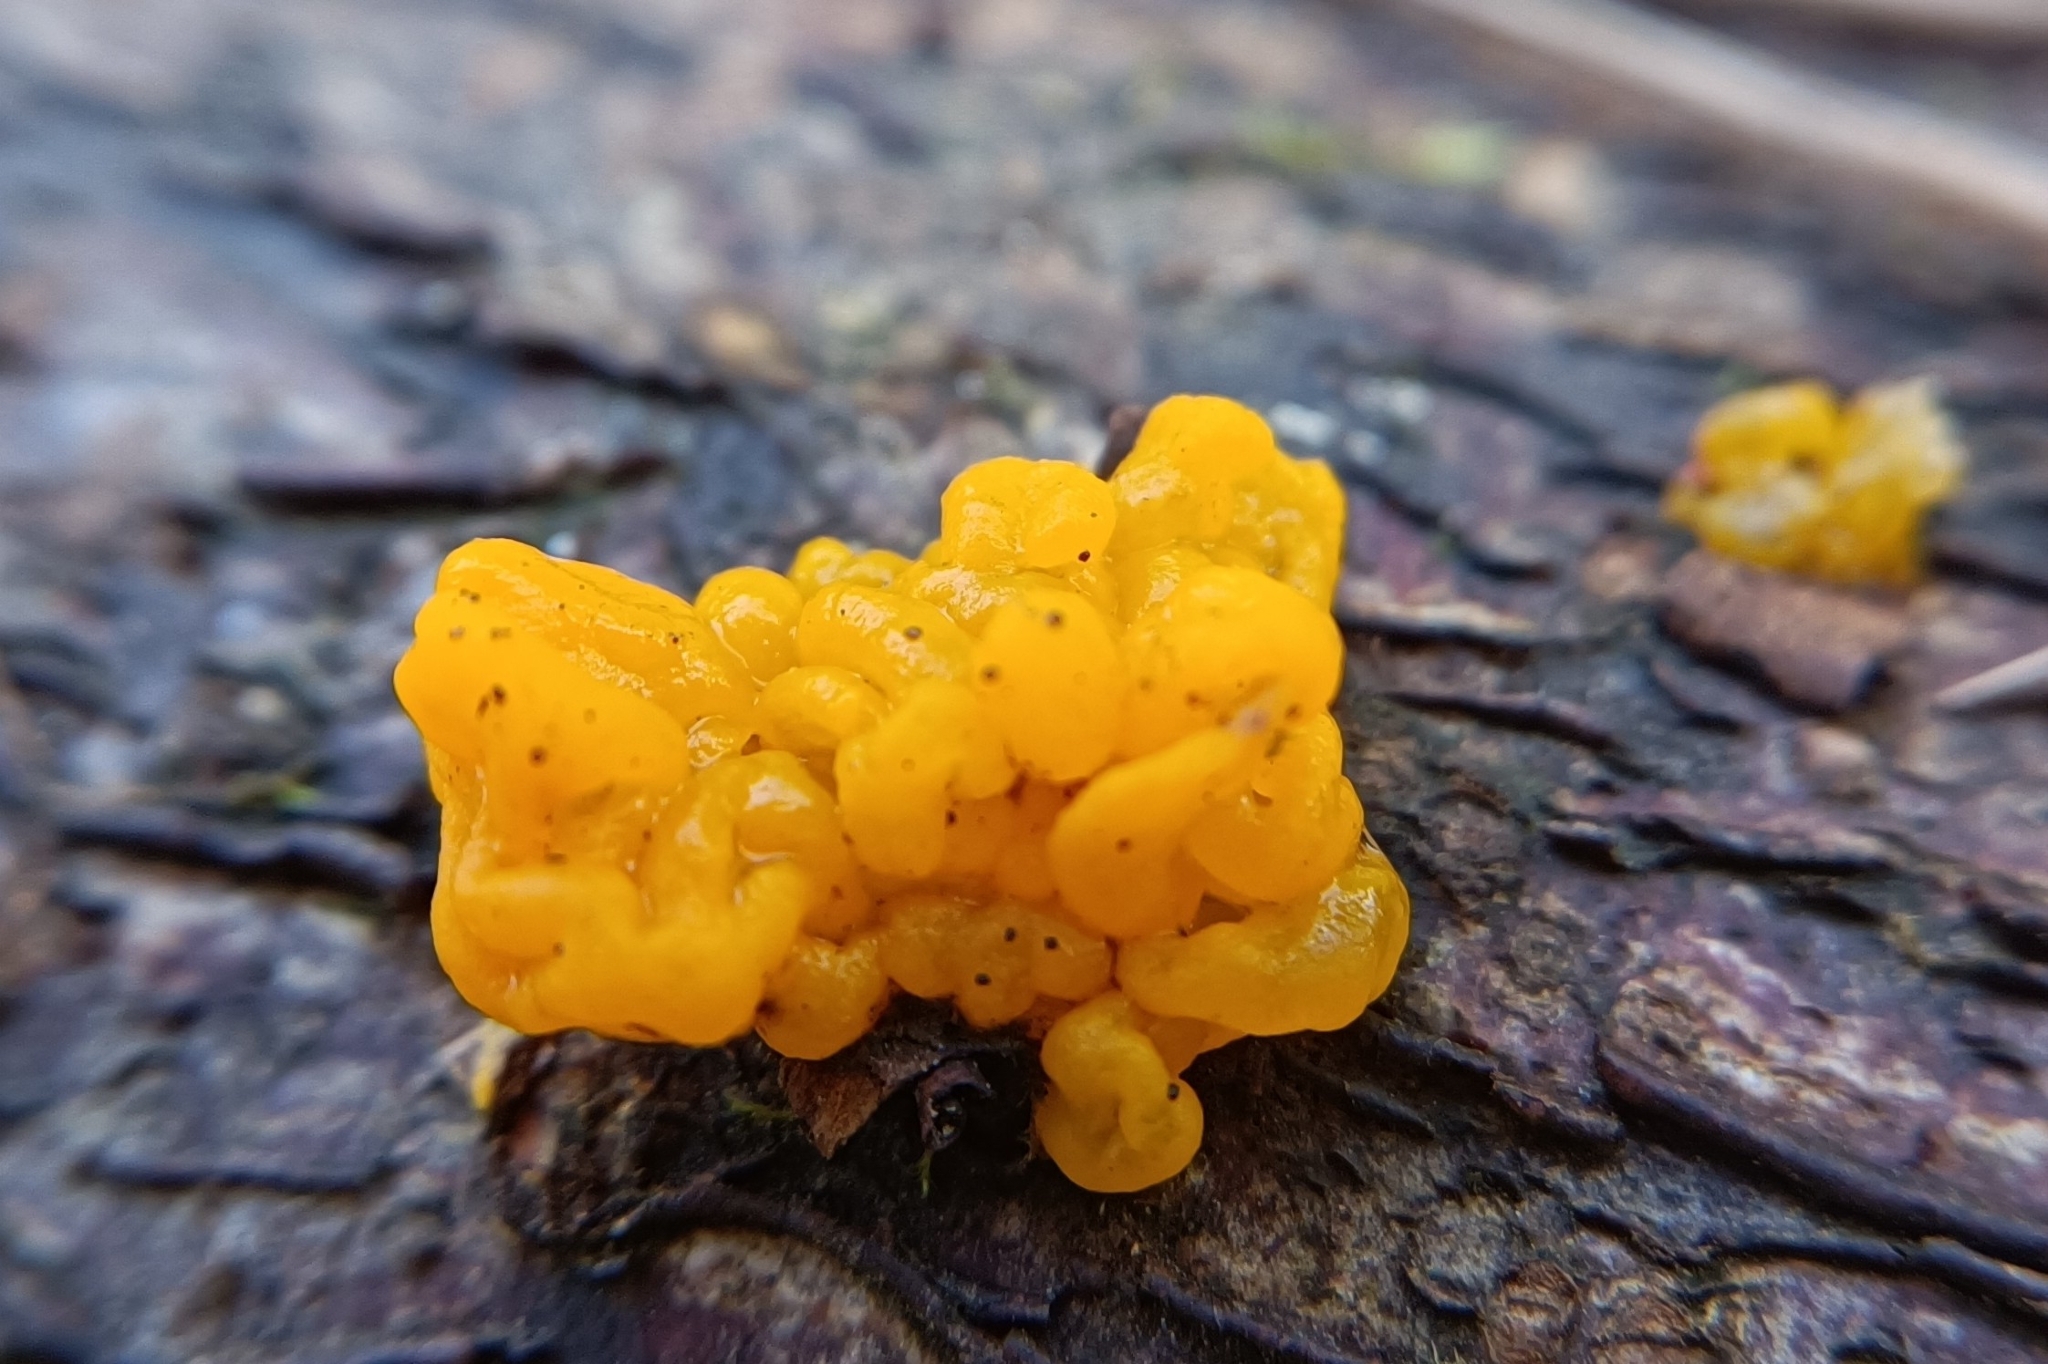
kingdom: Fungi
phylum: Basidiomycota
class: Dacrymycetes
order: Dacrymycetales
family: Dacrymycetaceae
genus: Dacrymyces
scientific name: Dacrymyces chrysospermus
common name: Orange jelly spot
